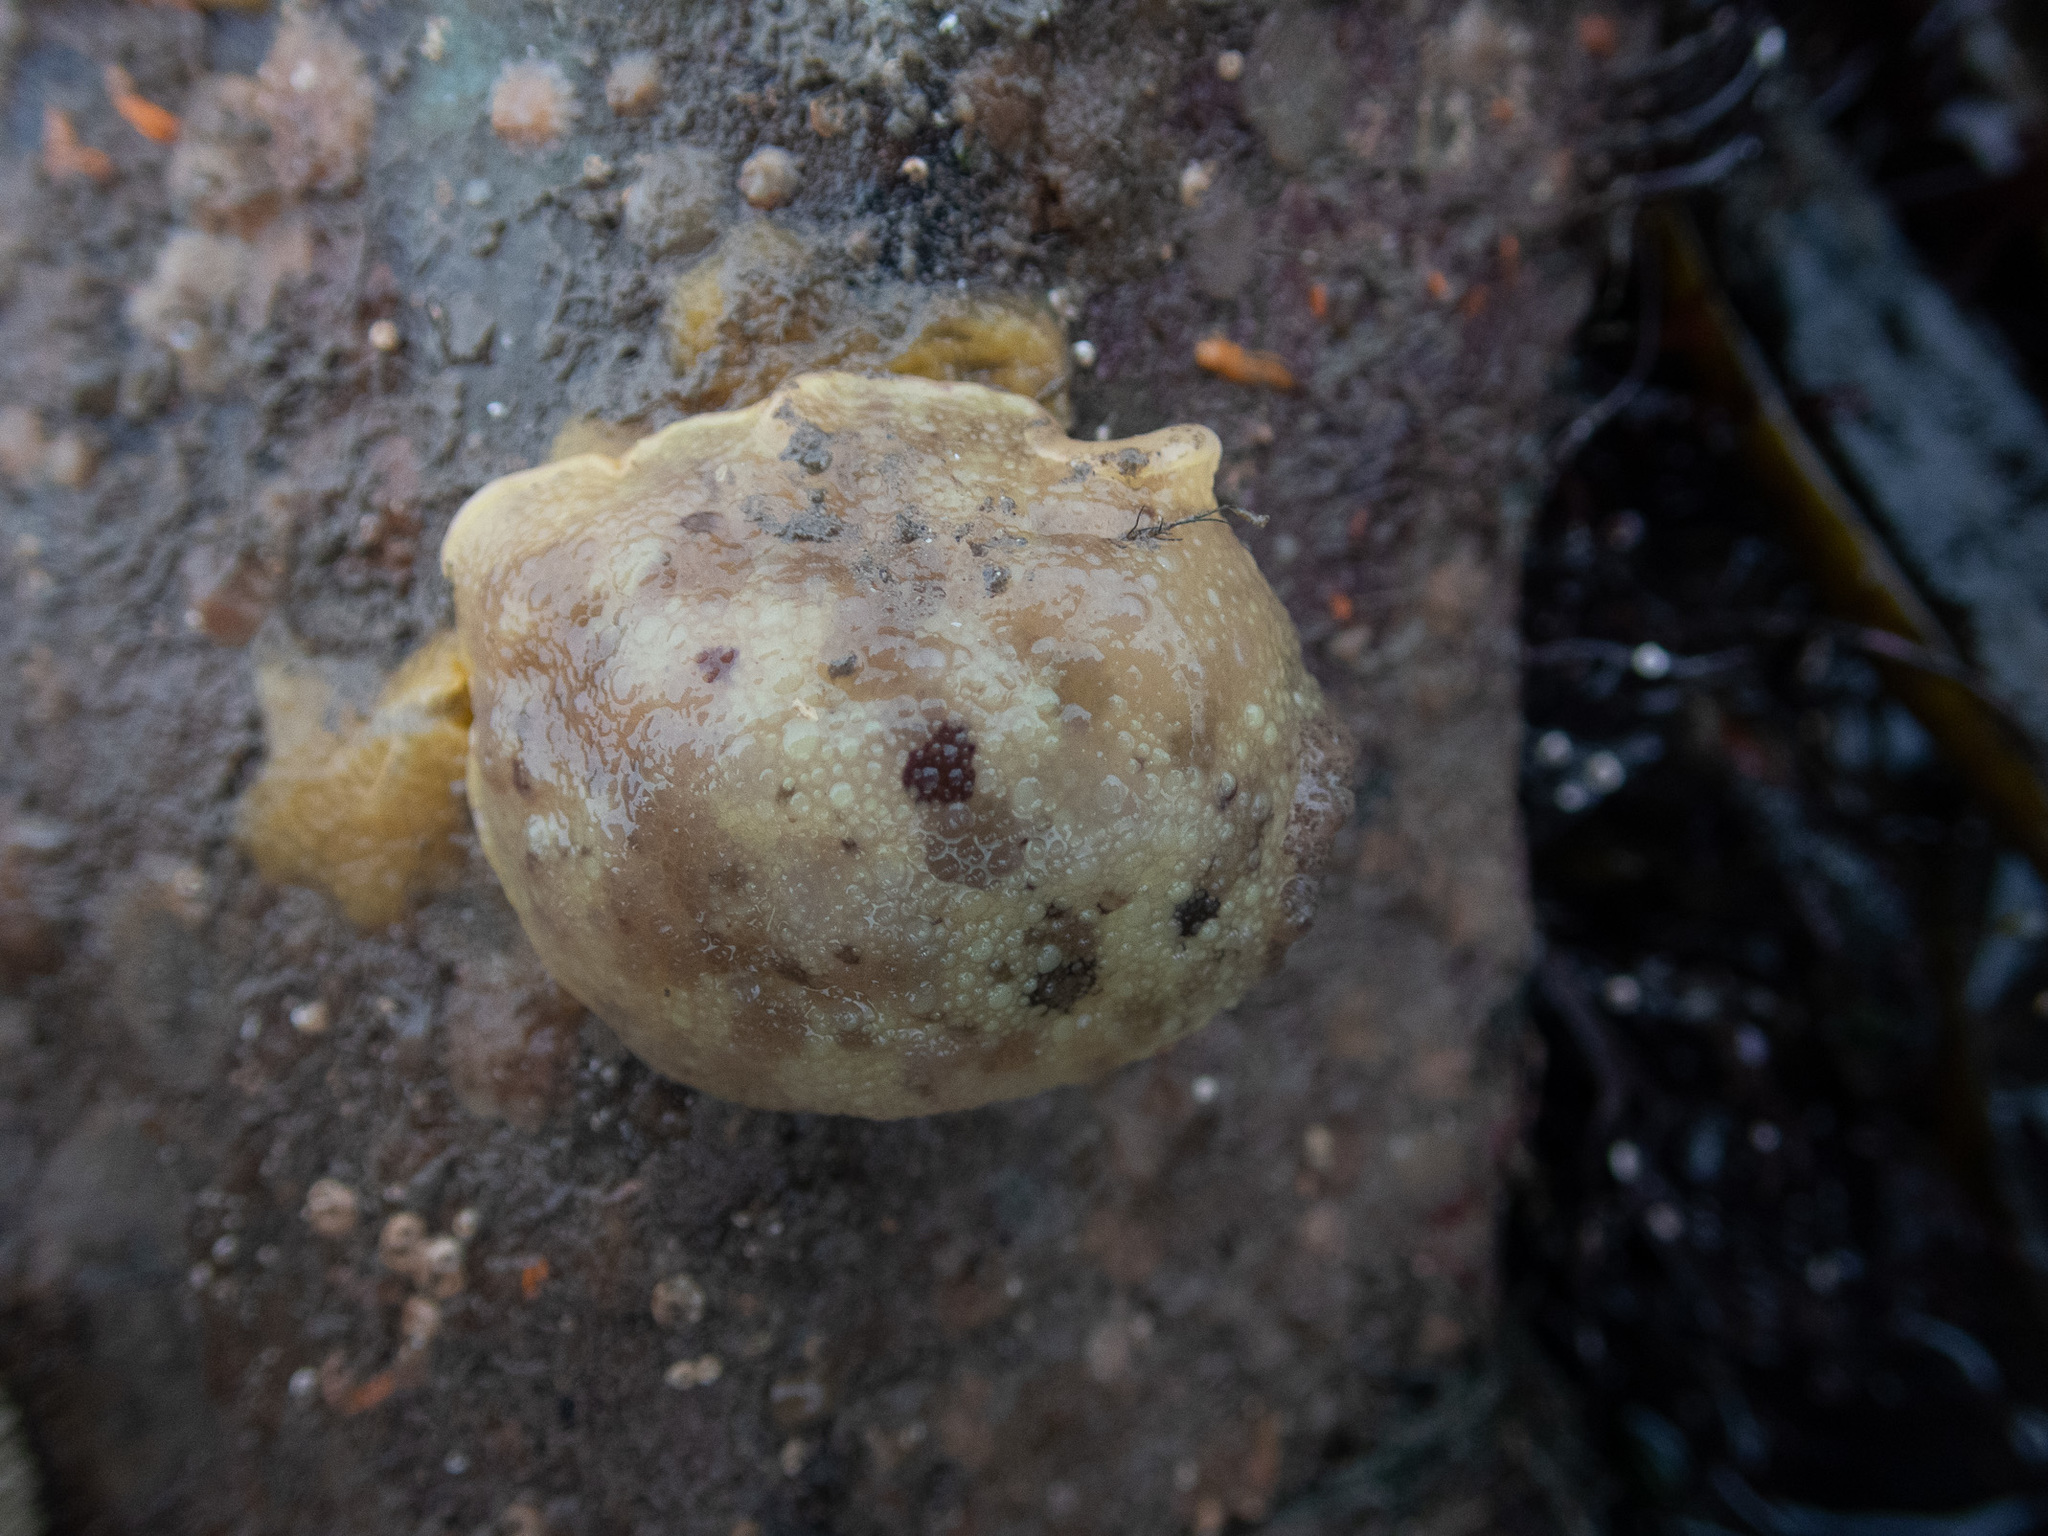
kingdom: Animalia
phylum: Mollusca
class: Gastropoda
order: Nudibranchia
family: Dorididae
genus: Doris
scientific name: Doris pseudoargus
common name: Sea lemon
